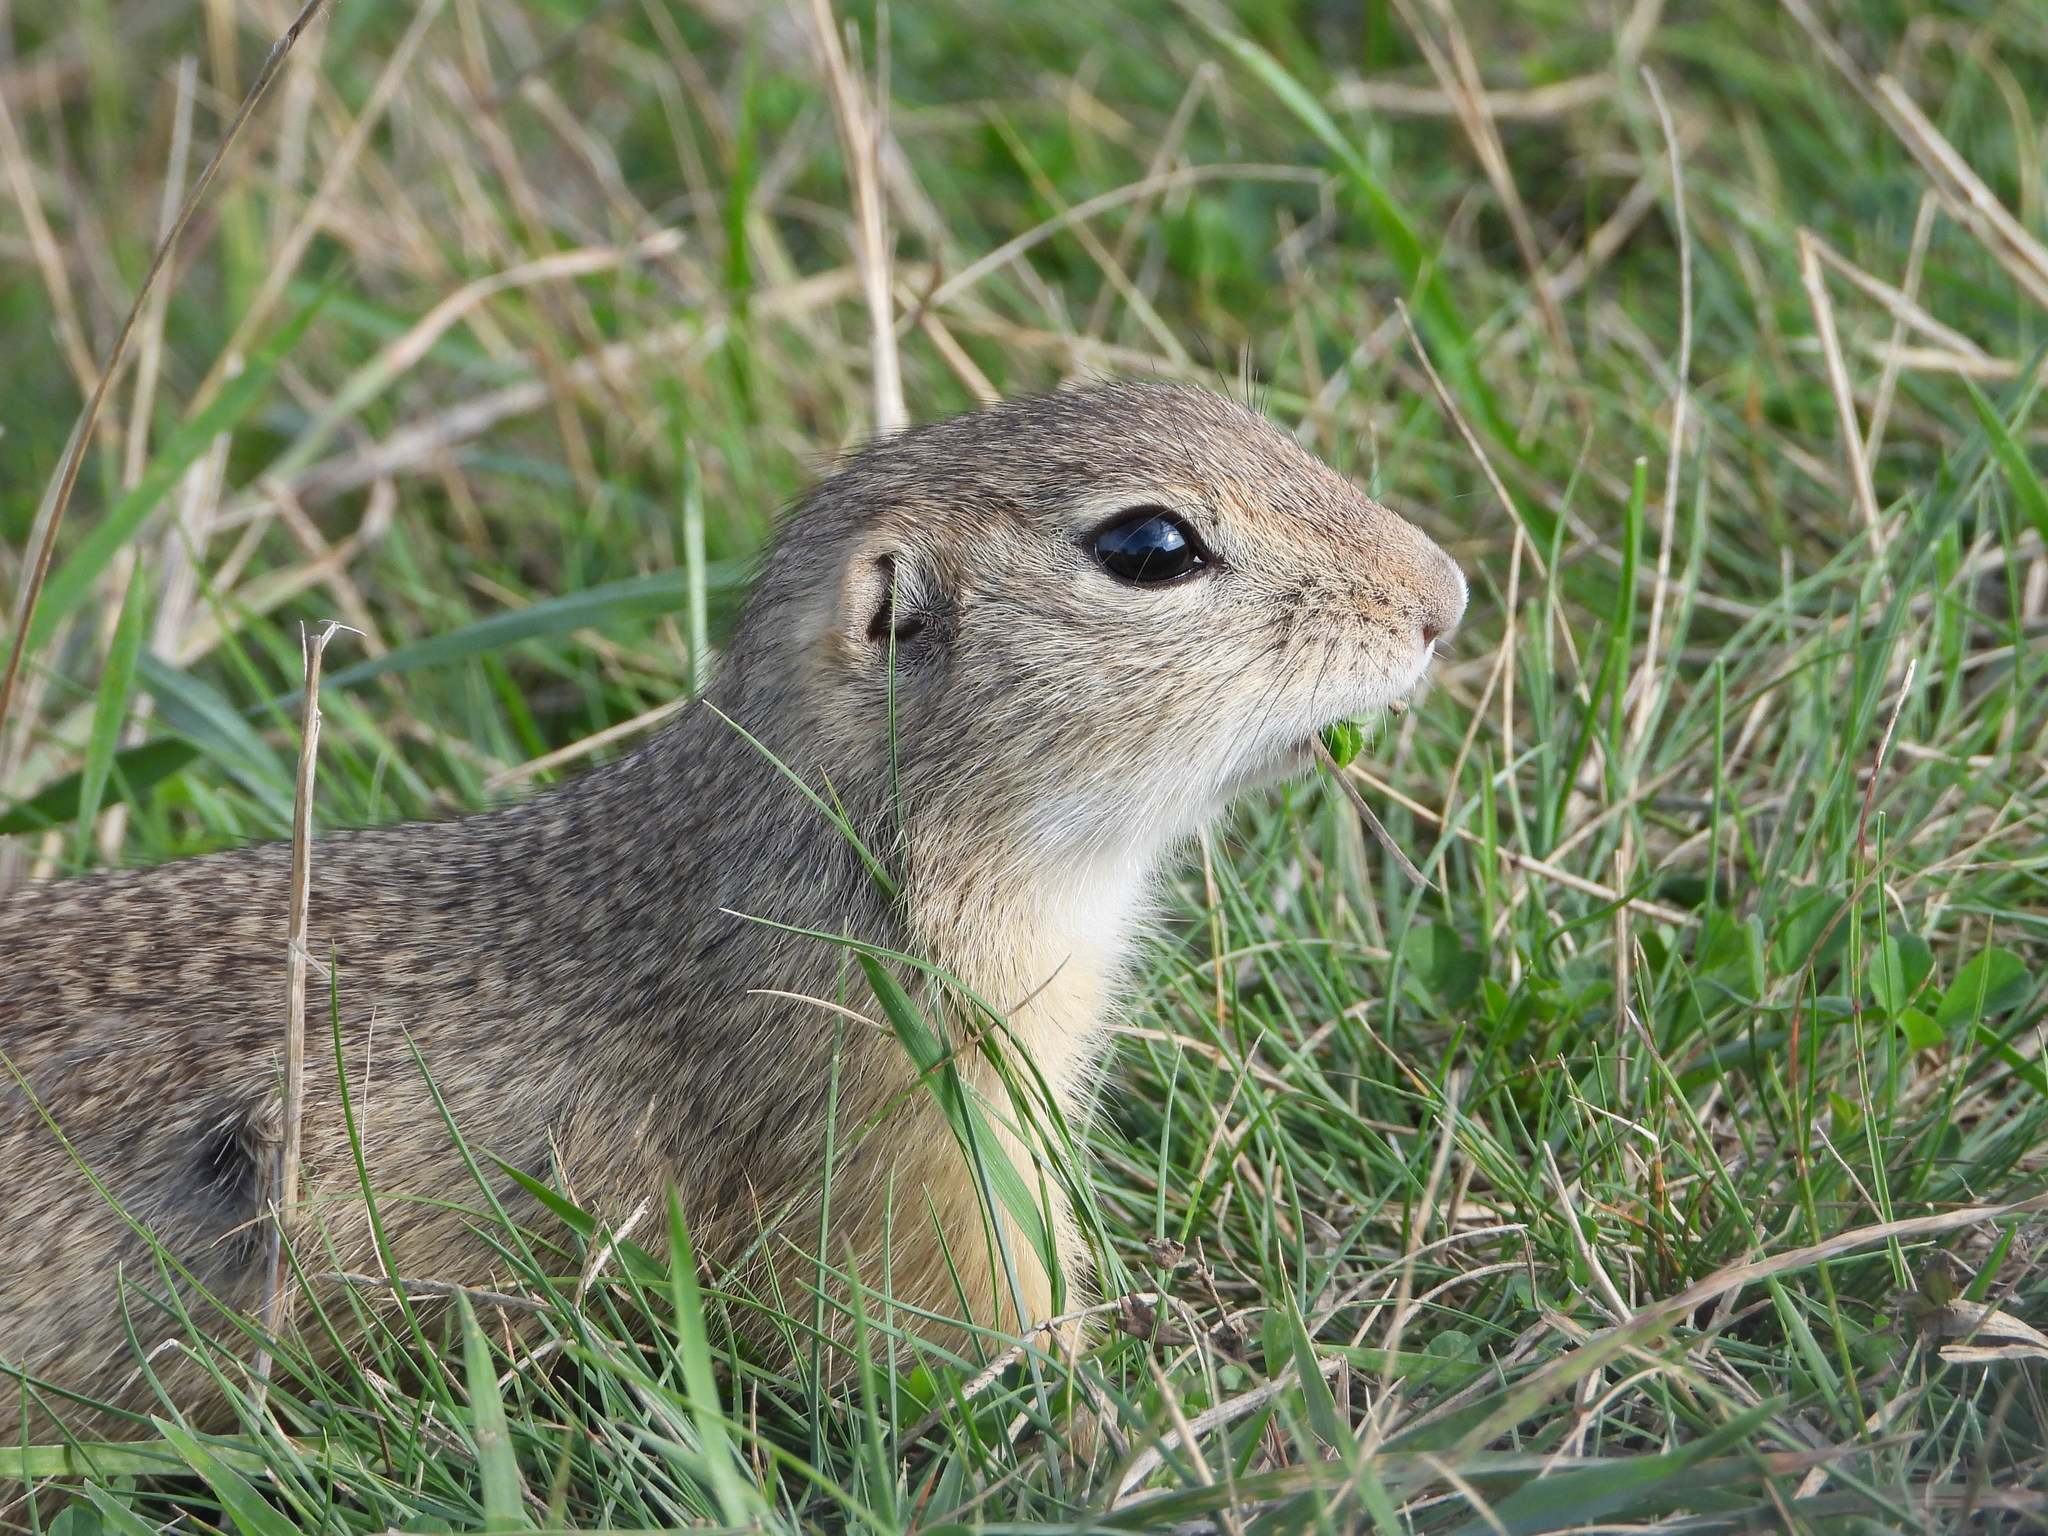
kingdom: Animalia
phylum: Chordata
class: Mammalia
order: Rodentia
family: Sciuridae
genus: Spermophilus
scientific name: Spermophilus citellus
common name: European ground squirrel
